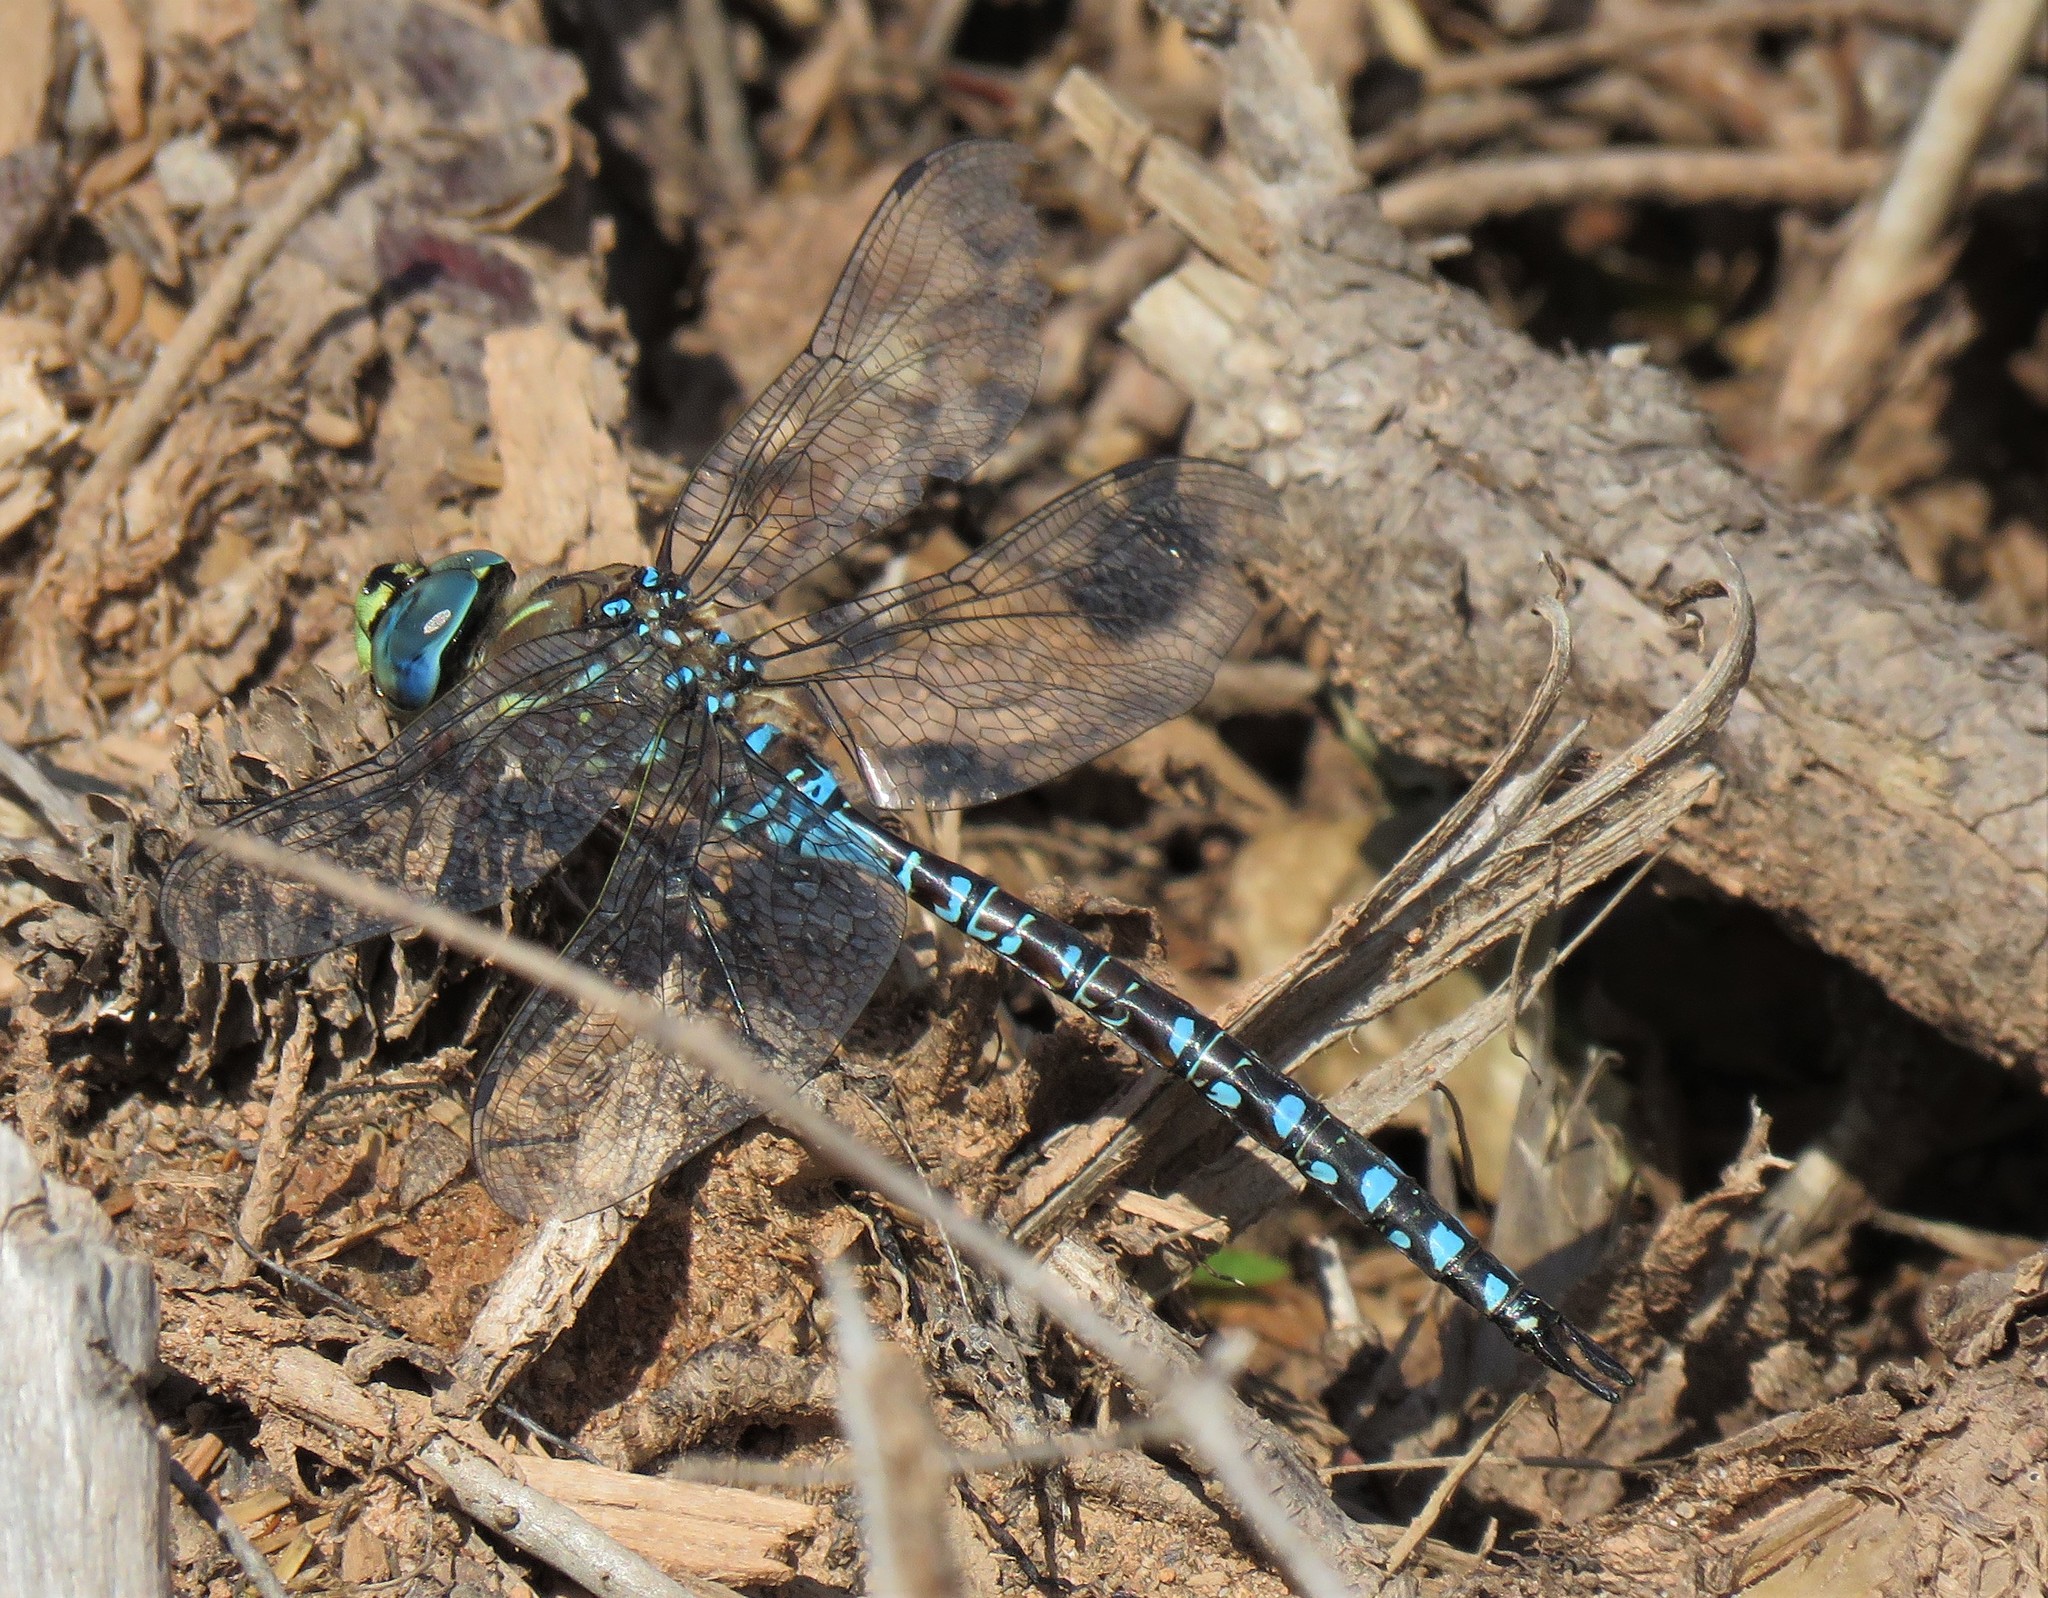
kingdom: Animalia
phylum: Arthropoda
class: Insecta
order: Odonata
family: Aeshnidae
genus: Aeshna
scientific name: Aeshna interrupta
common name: Variable darner
